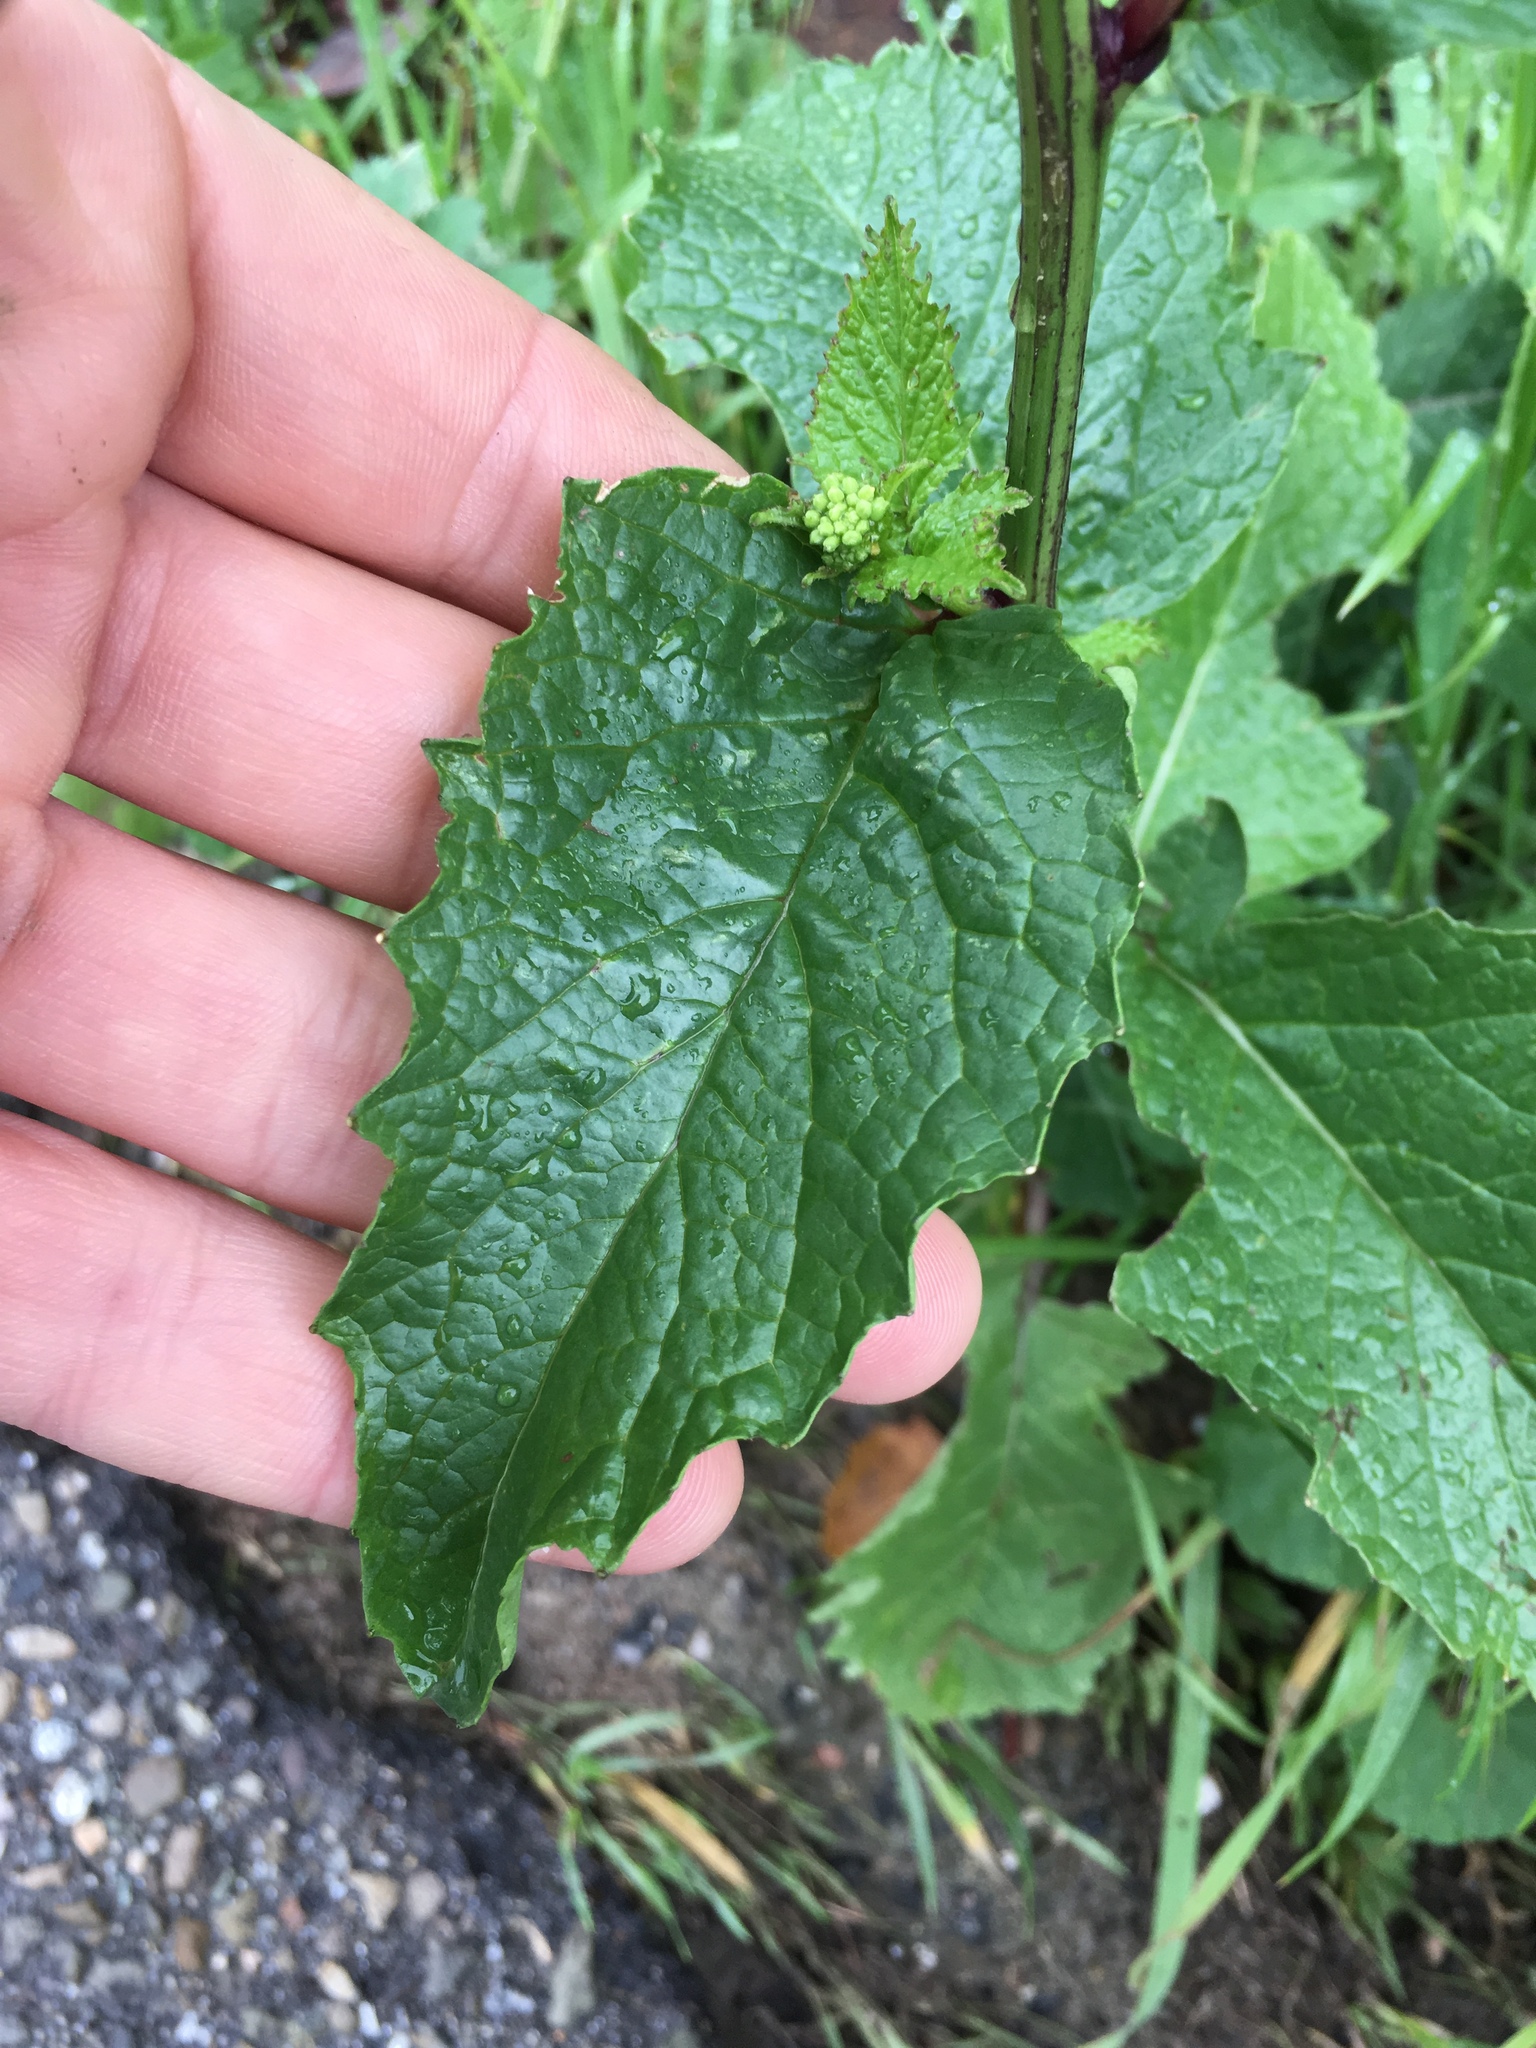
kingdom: Plantae
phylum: Tracheophyta
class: Magnoliopsida
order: Brassicales
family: Brassicaceae
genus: Brassica
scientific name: Brassica nigra
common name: Black mustard
